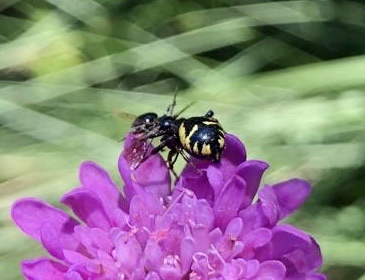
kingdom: Animalia
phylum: Arthropoda
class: Arachnida
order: Araneae
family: Thomisidae
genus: Synema
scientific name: Synema globosum
